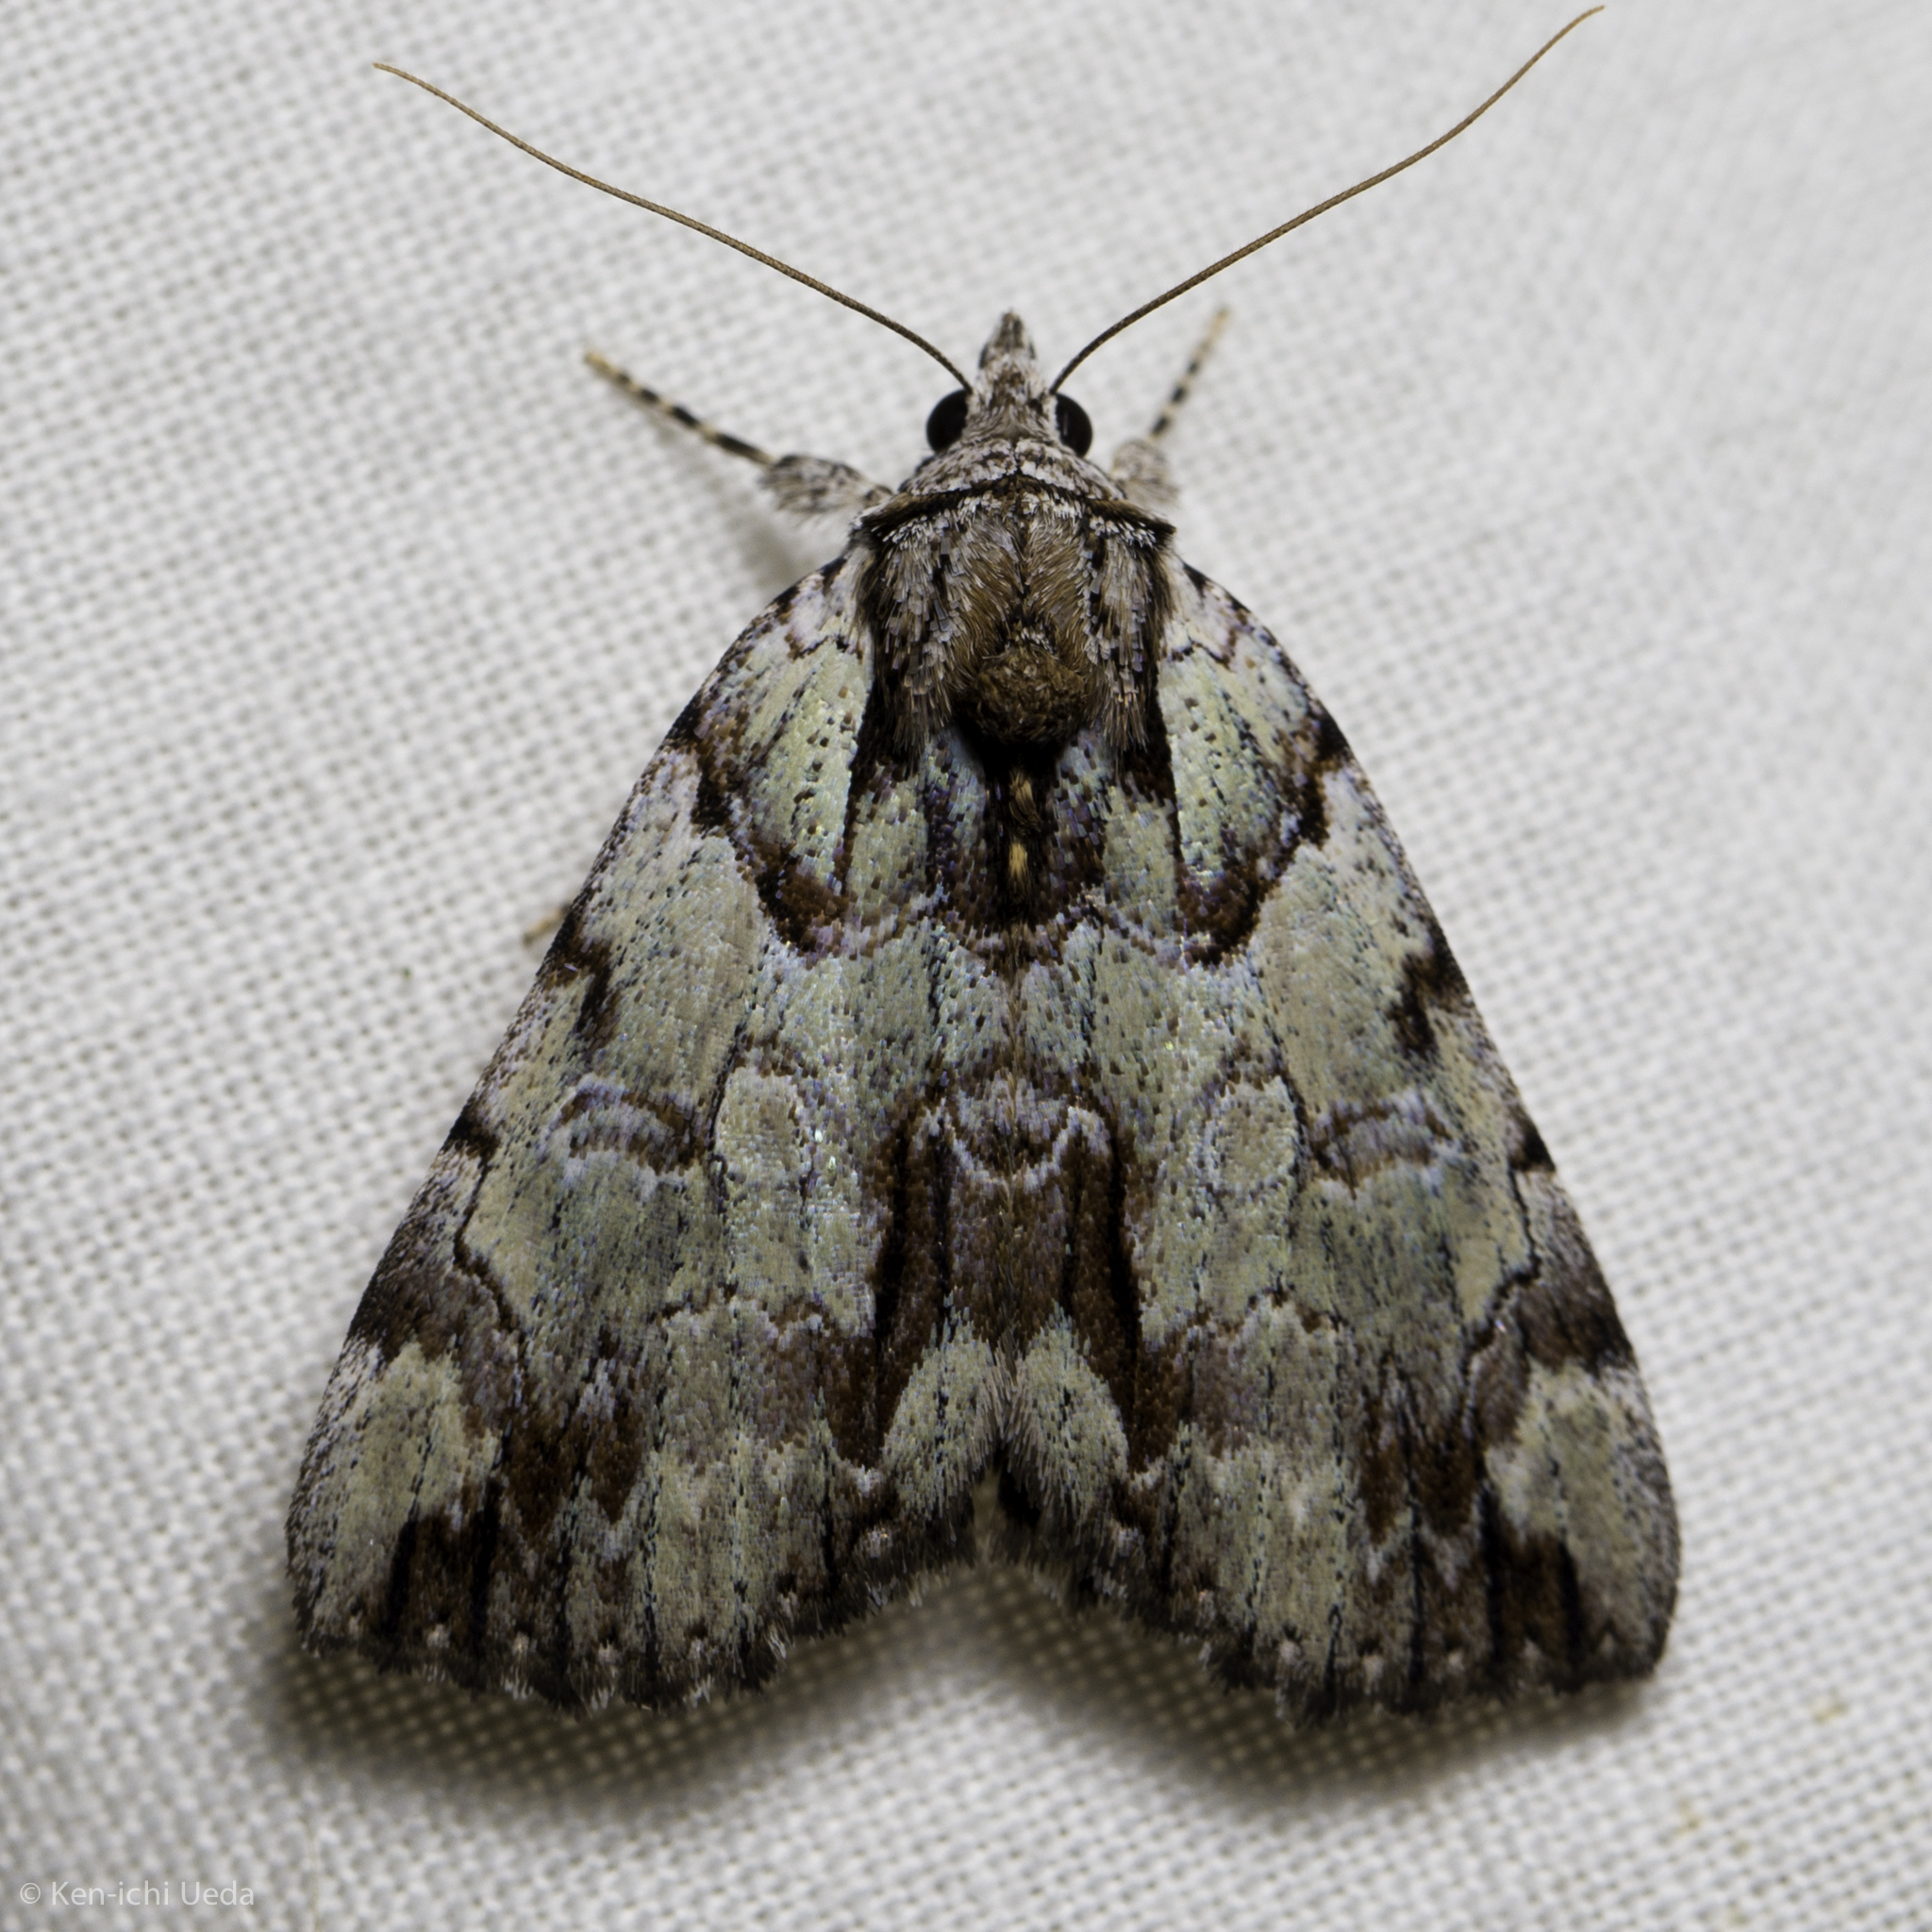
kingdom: Animalia
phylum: Arthropoda
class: Insecta
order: Lepidoptera
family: Erebidae
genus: Catocala
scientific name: Catocala praeclara
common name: Praeclara underwing
